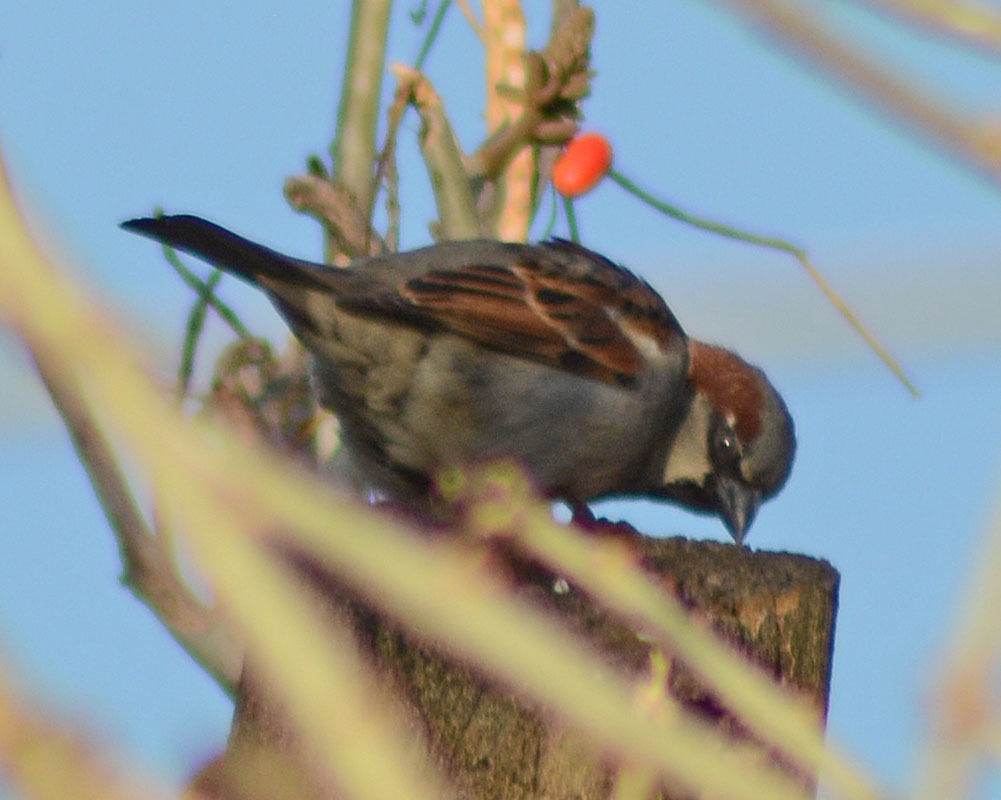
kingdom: Animalia
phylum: Chordata
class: Aves
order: Passeriformes
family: Passeridae
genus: Passer
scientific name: Passer domesticus
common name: House sparrow
